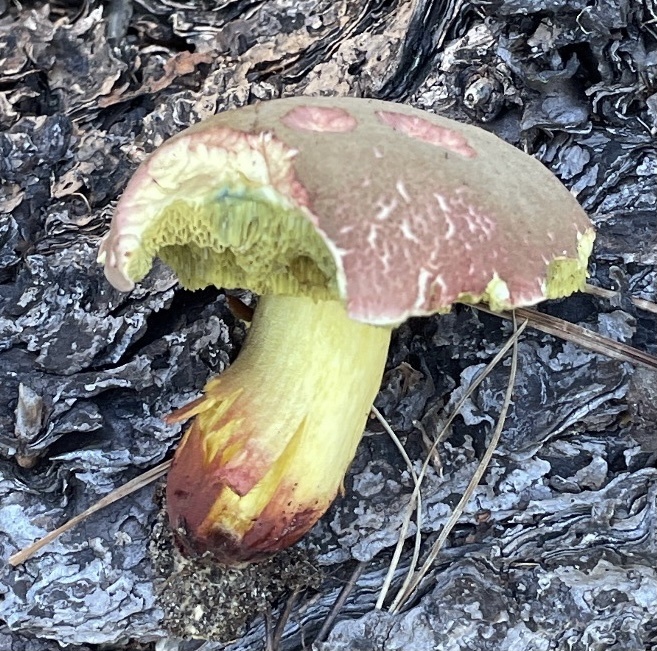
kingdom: Fungi
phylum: Basidiomycota
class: Agaricomycetes
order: Boletales
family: Boletaceae
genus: Xerocomellus
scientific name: Xerocomellus dryophilus
